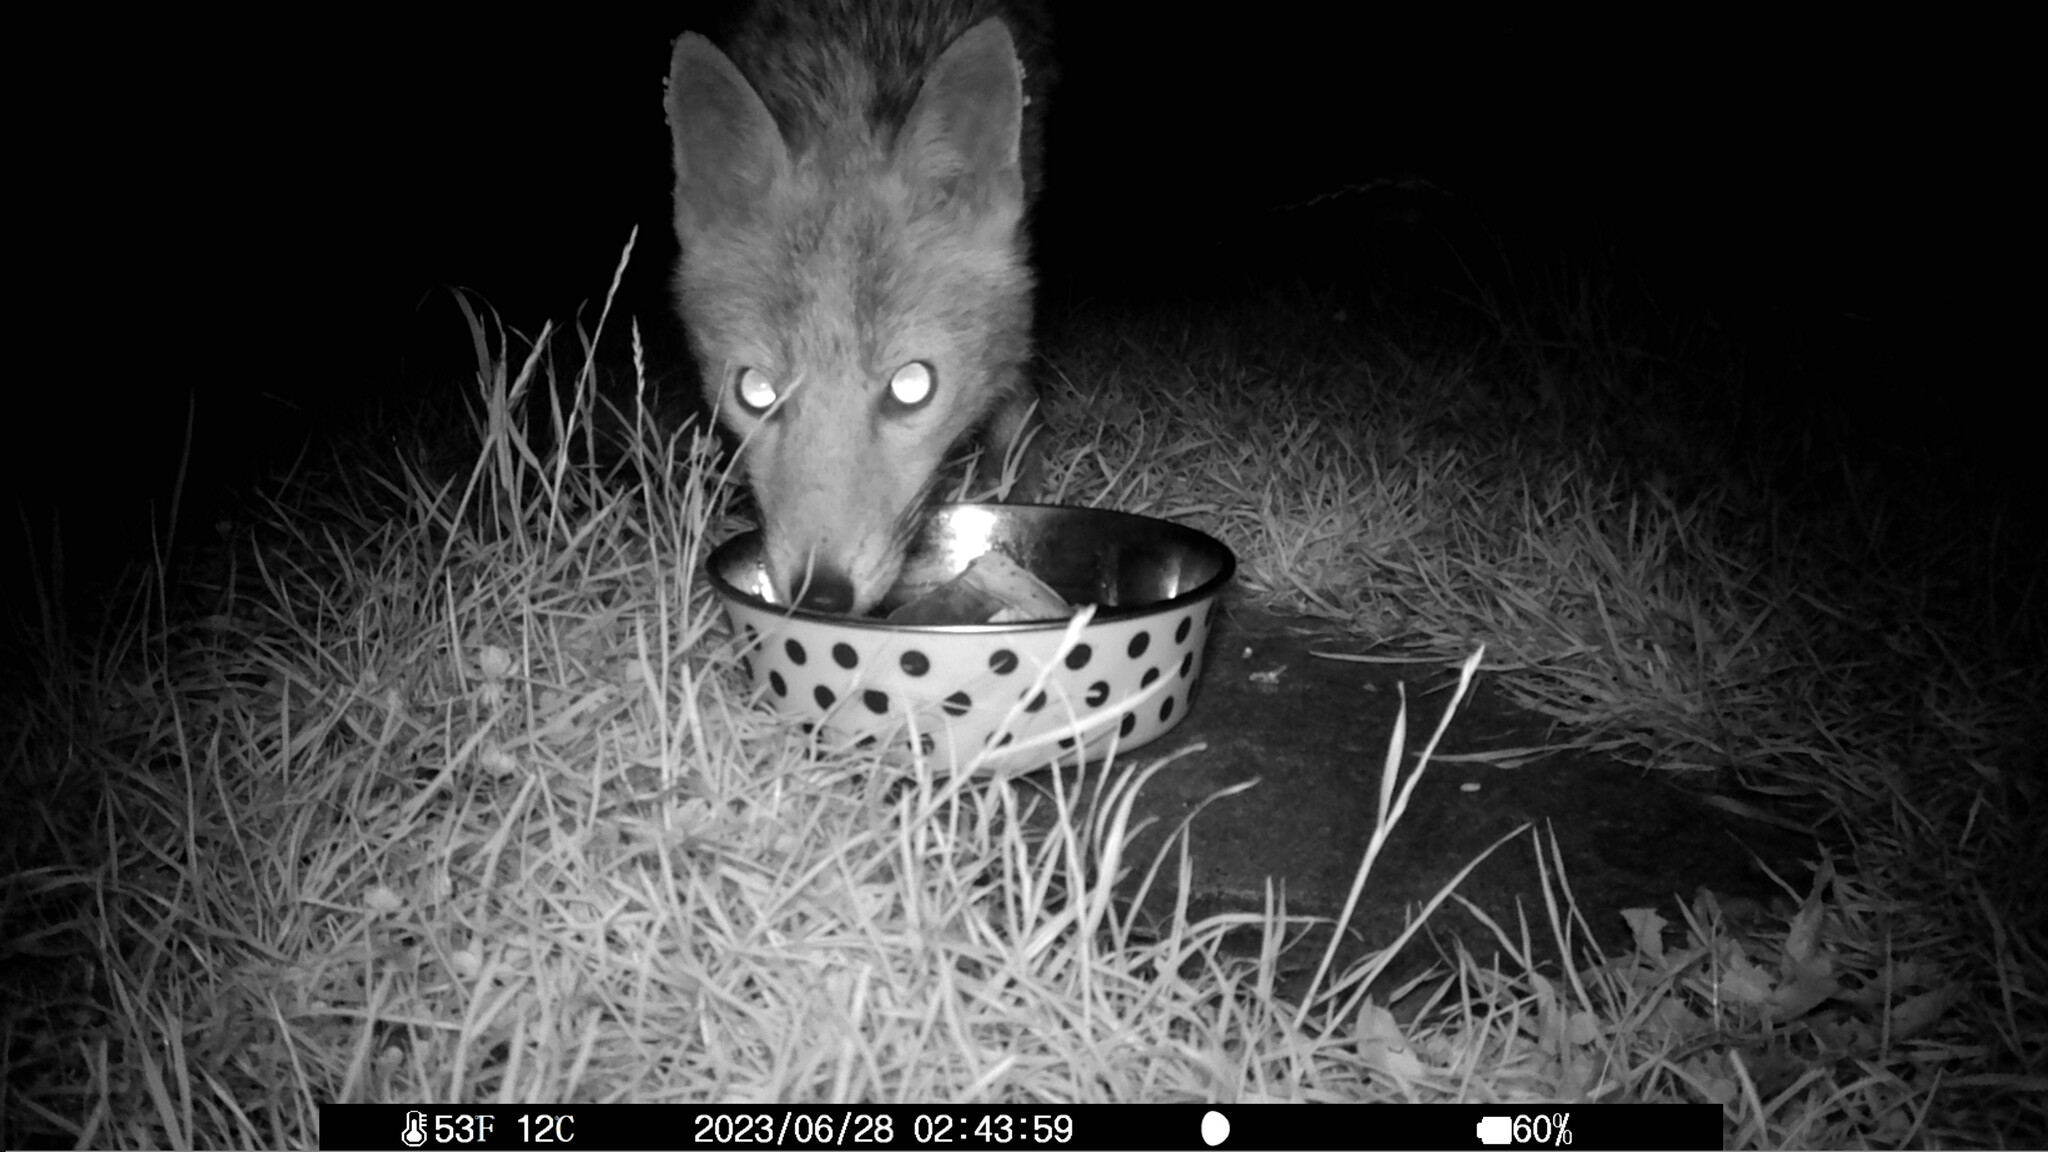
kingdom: Animalia
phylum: Chordata
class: Mammalia
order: Carnivora
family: Canidae
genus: Vulpes
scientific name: Vulpes vulpes
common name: Red fox
